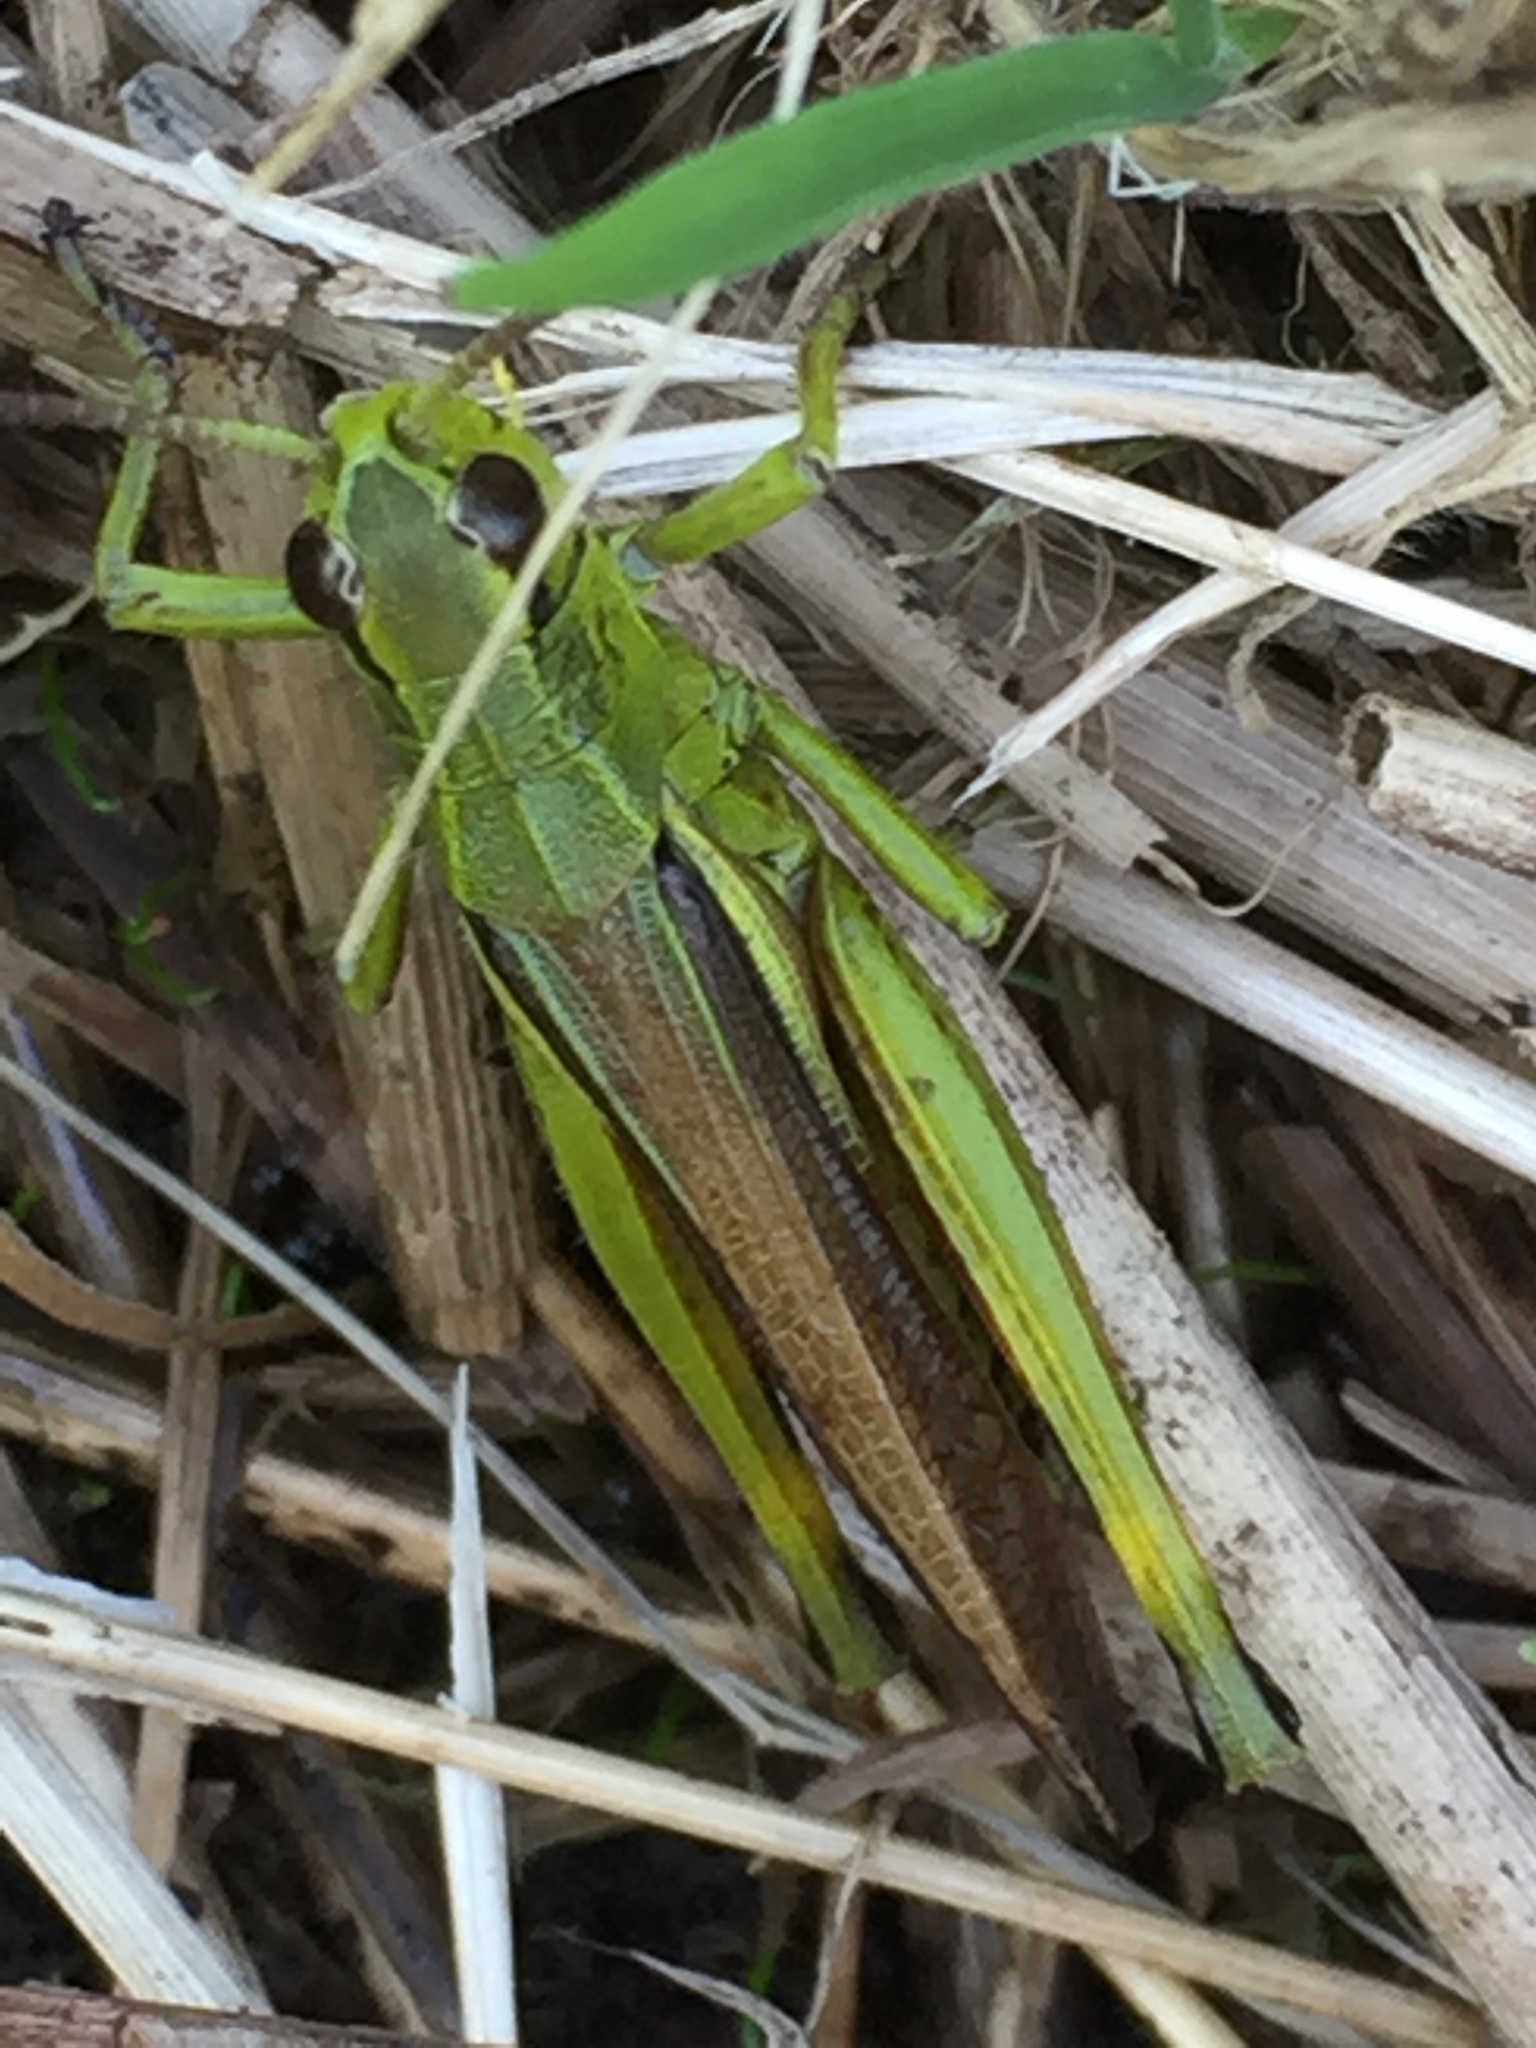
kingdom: Animalia
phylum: Arthropoda
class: Insecta
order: Orthoptera
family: Acrididae
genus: Stethophyma
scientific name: Stethophyma grossum
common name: Large marsh grasshopper
